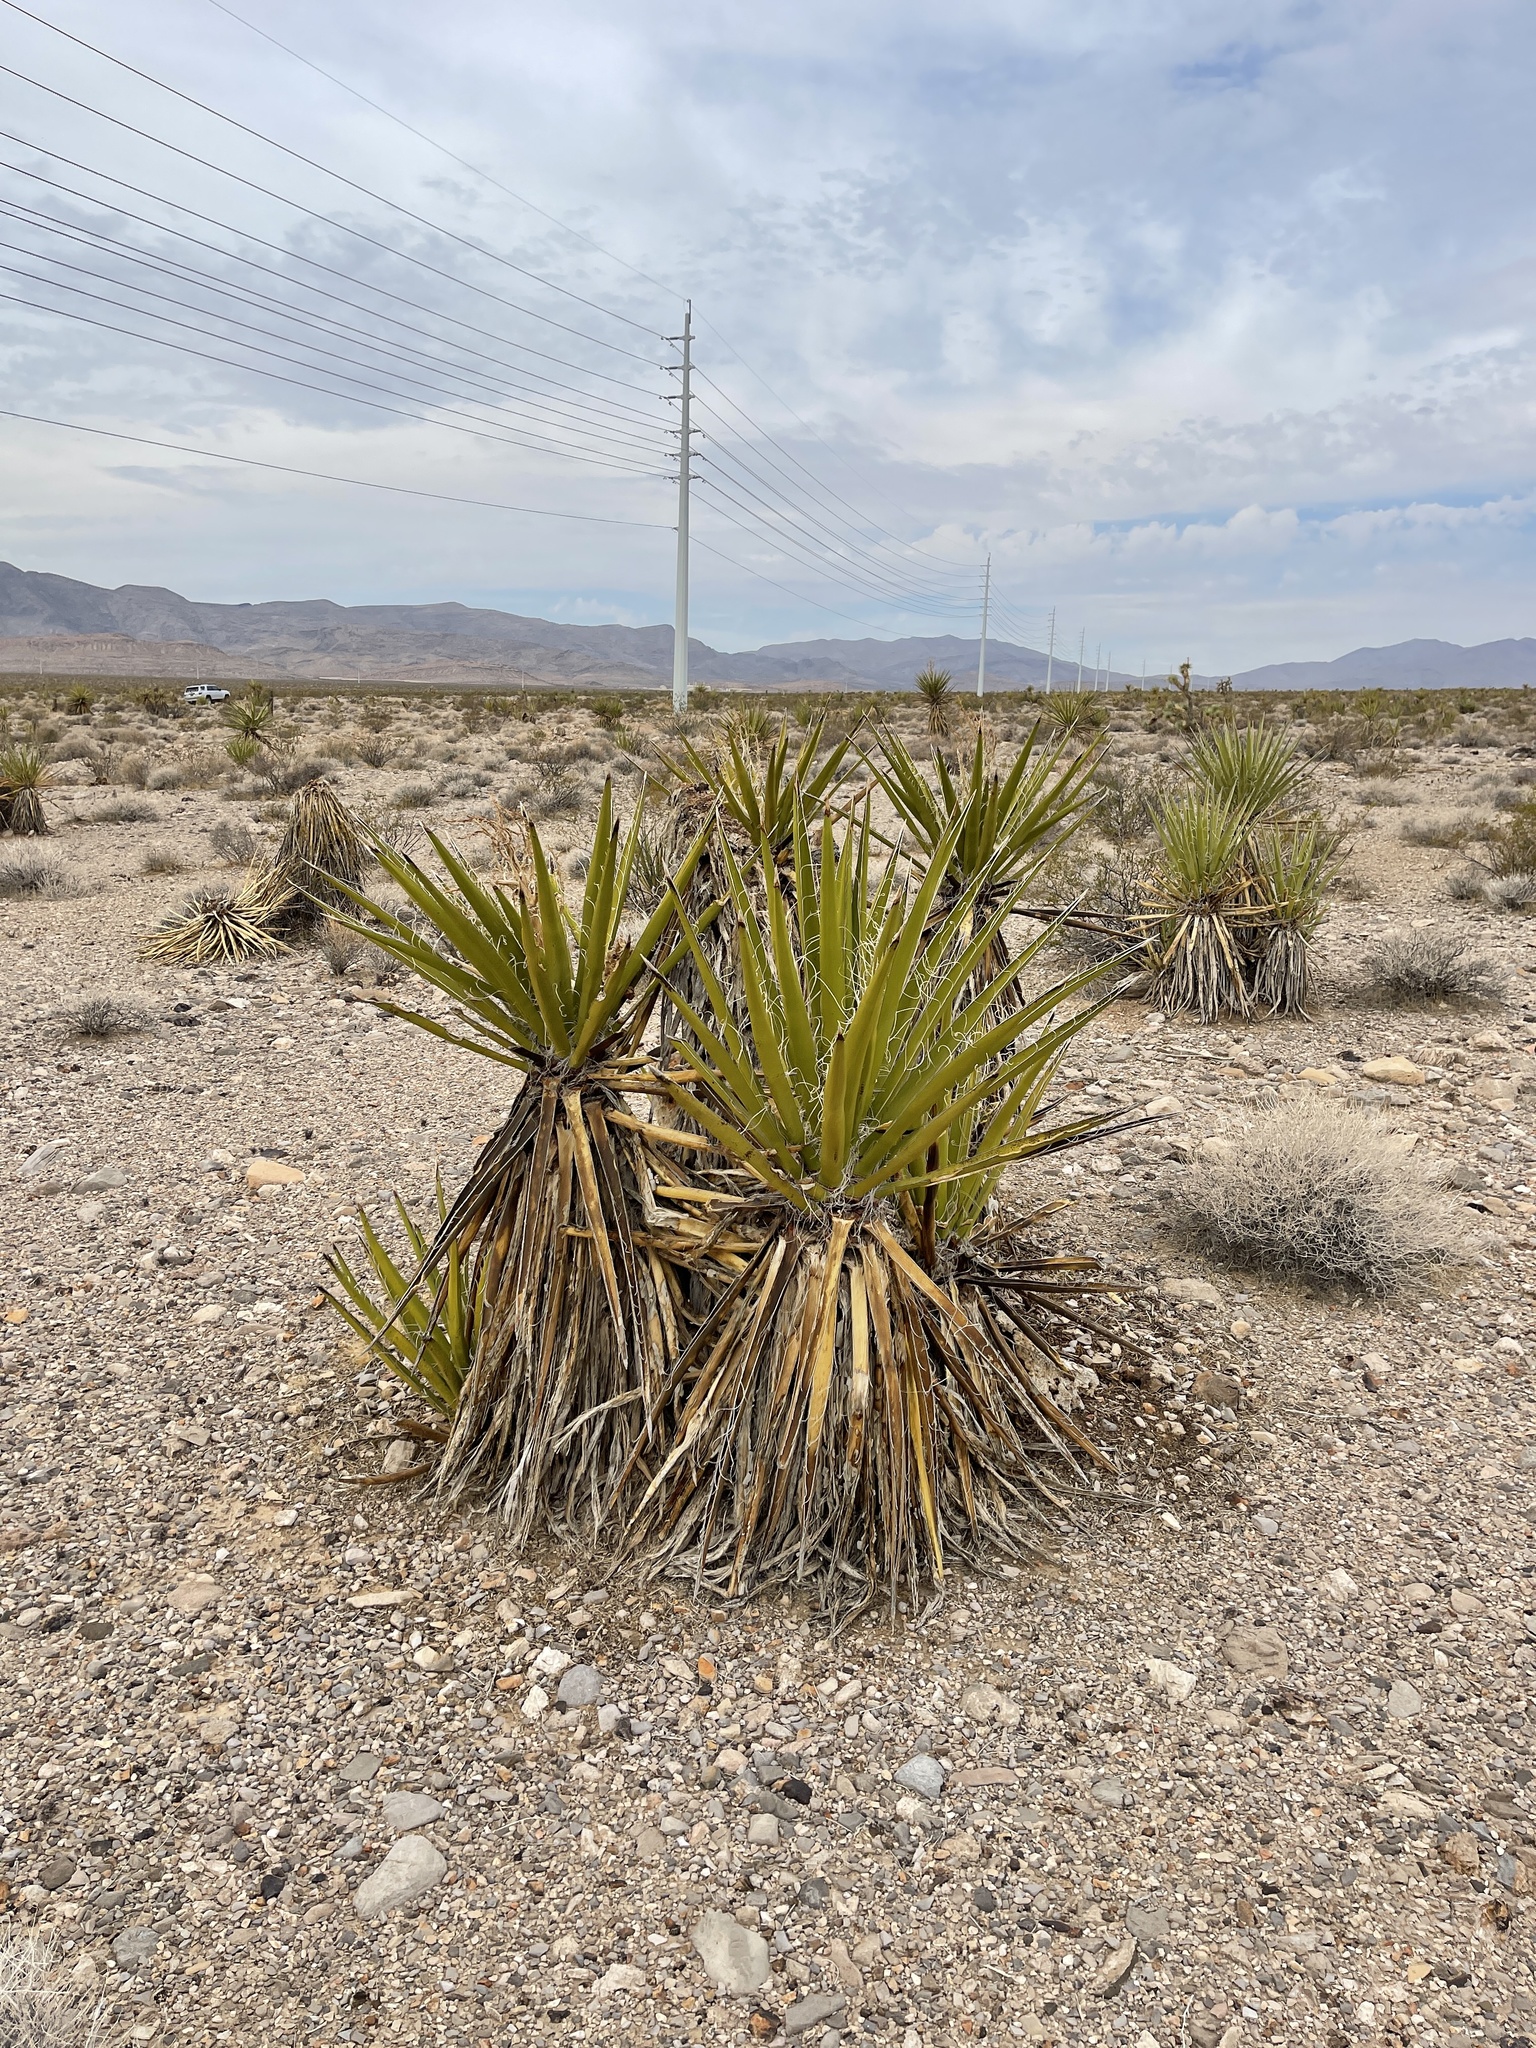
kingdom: Plantae
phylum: Tracheophyta
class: Liliopsida
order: Asparagales
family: Asparagaceae
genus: Yucca
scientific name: Yucca schidigera
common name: Mojave yucca
